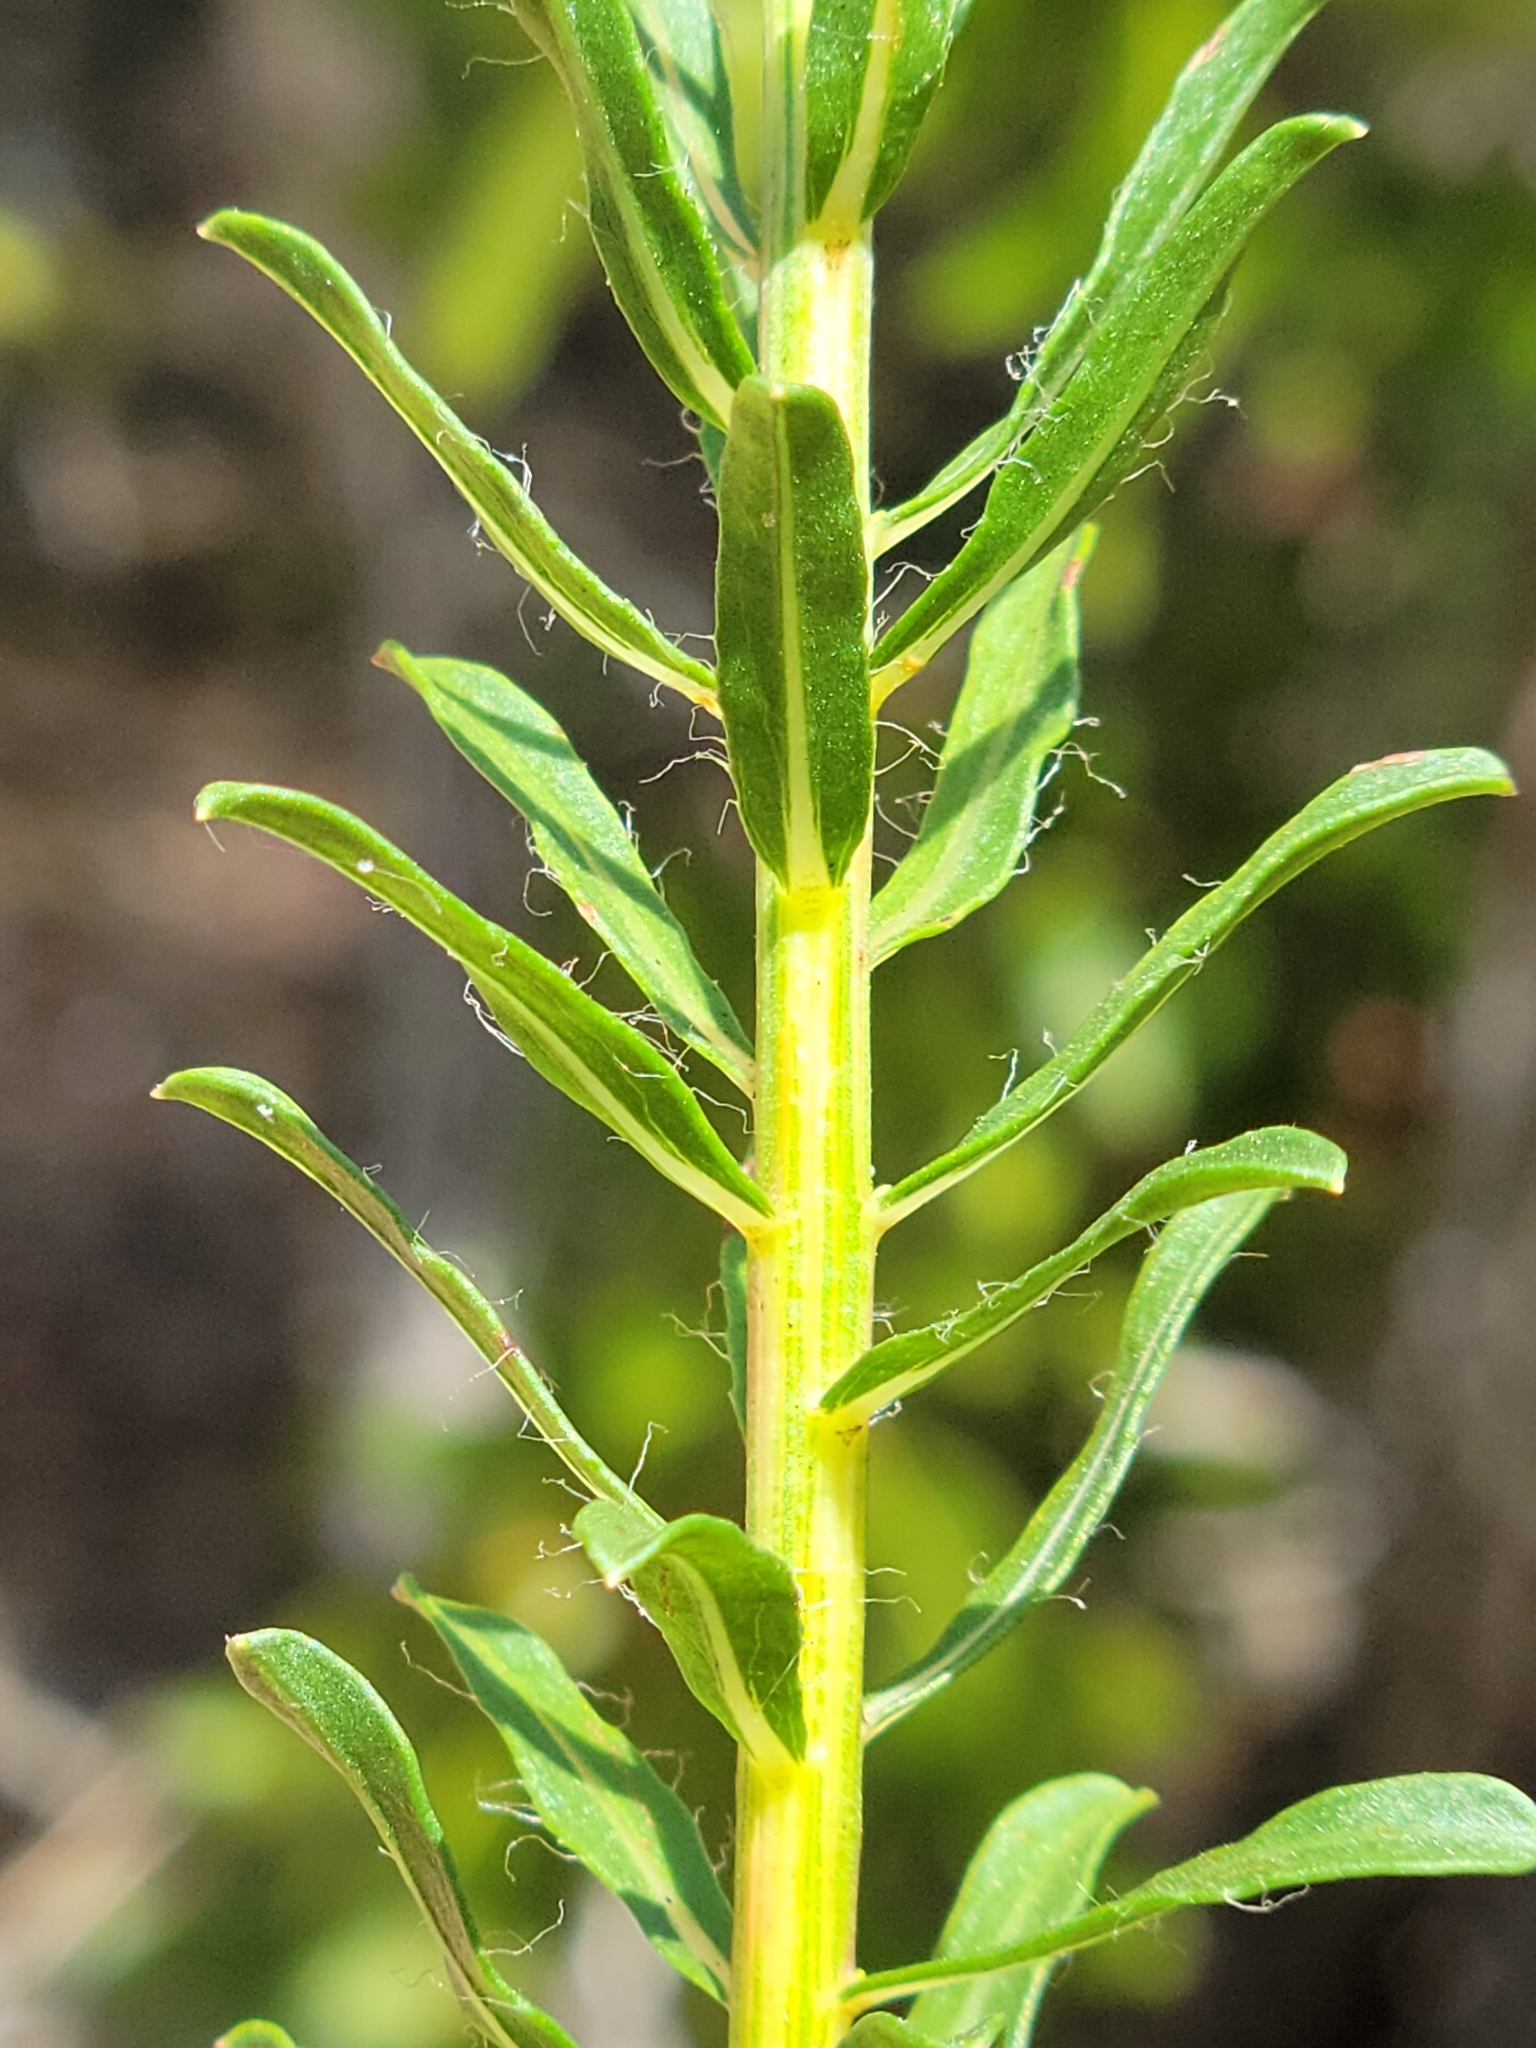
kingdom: Plantae
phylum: Tracheophyta
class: Magnoliopsida
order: Asterales
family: Asteraceae
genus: Chrysopsis
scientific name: Chrysopsis gossypina
